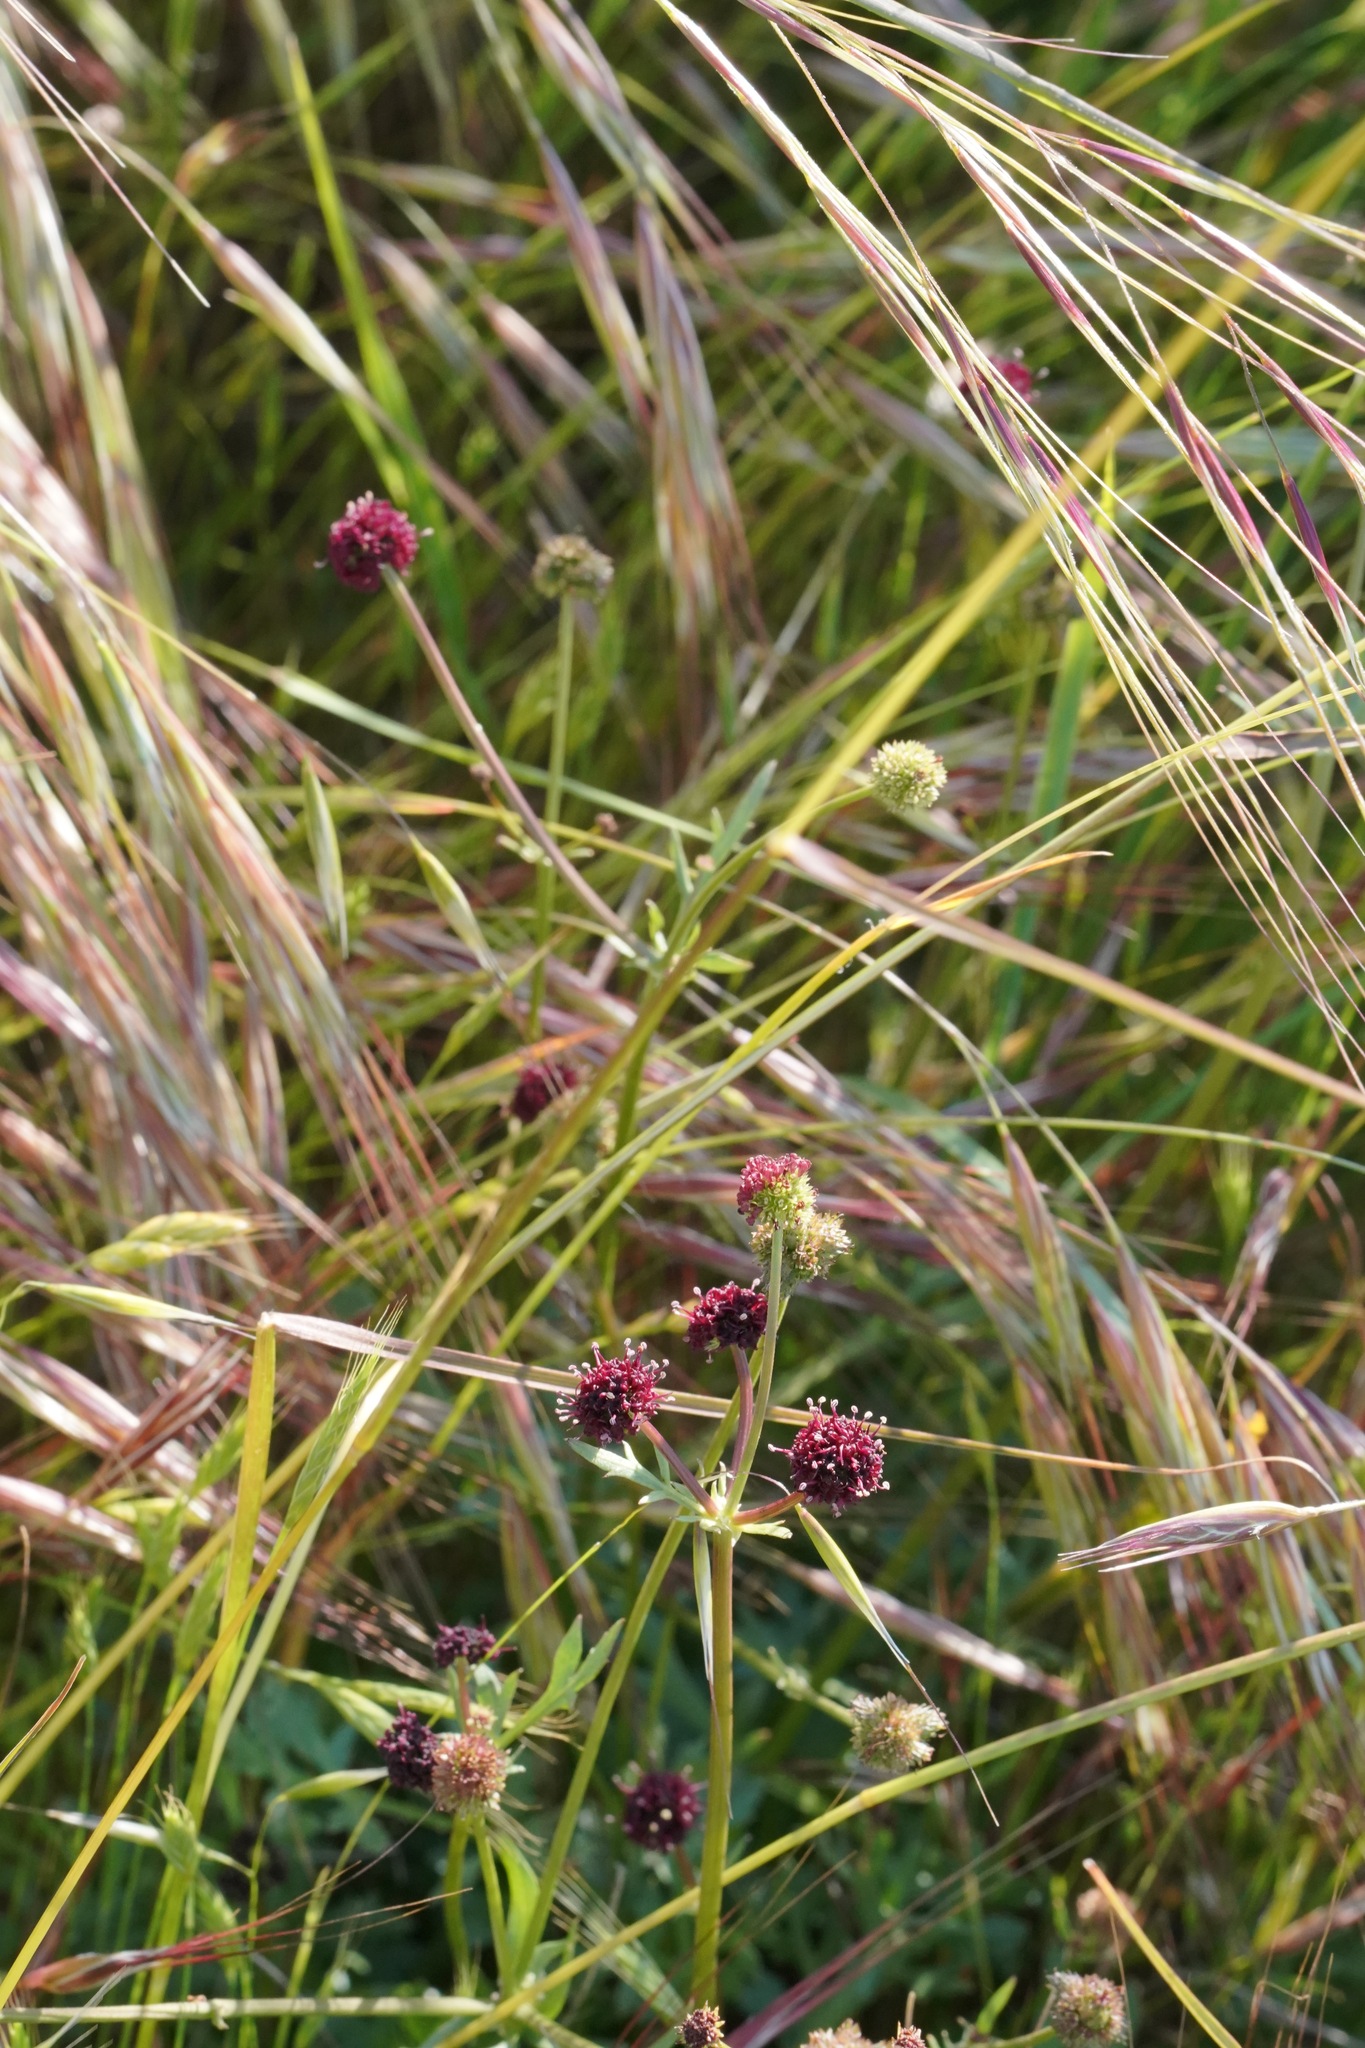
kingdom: Plantae
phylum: Tracheophyta
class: Magnoliopsida
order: Apiales
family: Apiaceae
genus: Sanicula
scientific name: Sanicula bipinnatifida
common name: Shoe-buttons
